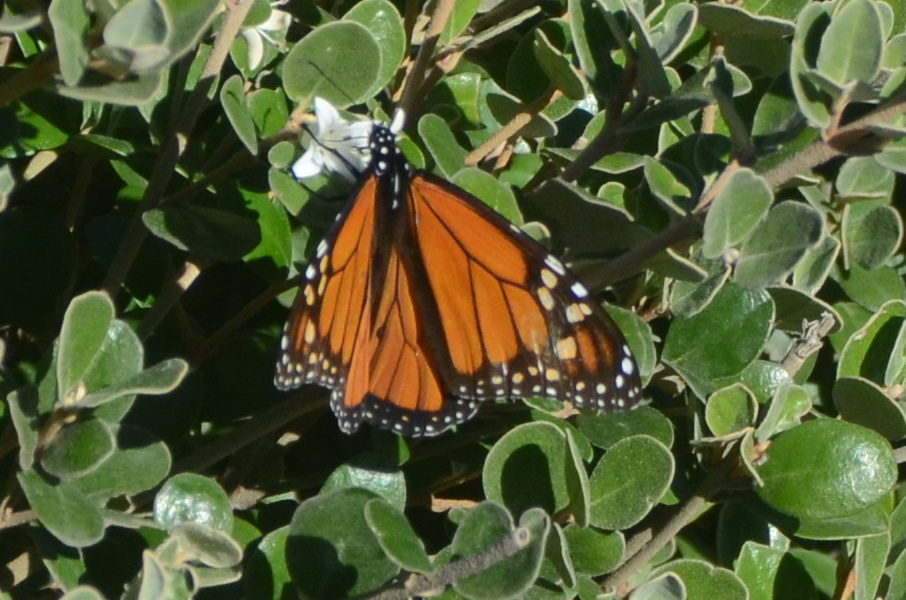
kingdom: Animalia
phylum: Arthropoda
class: Insecta
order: Lepidoptera
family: Nymphalidae
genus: Danaus
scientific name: Danaus plexippus
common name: Monarch
